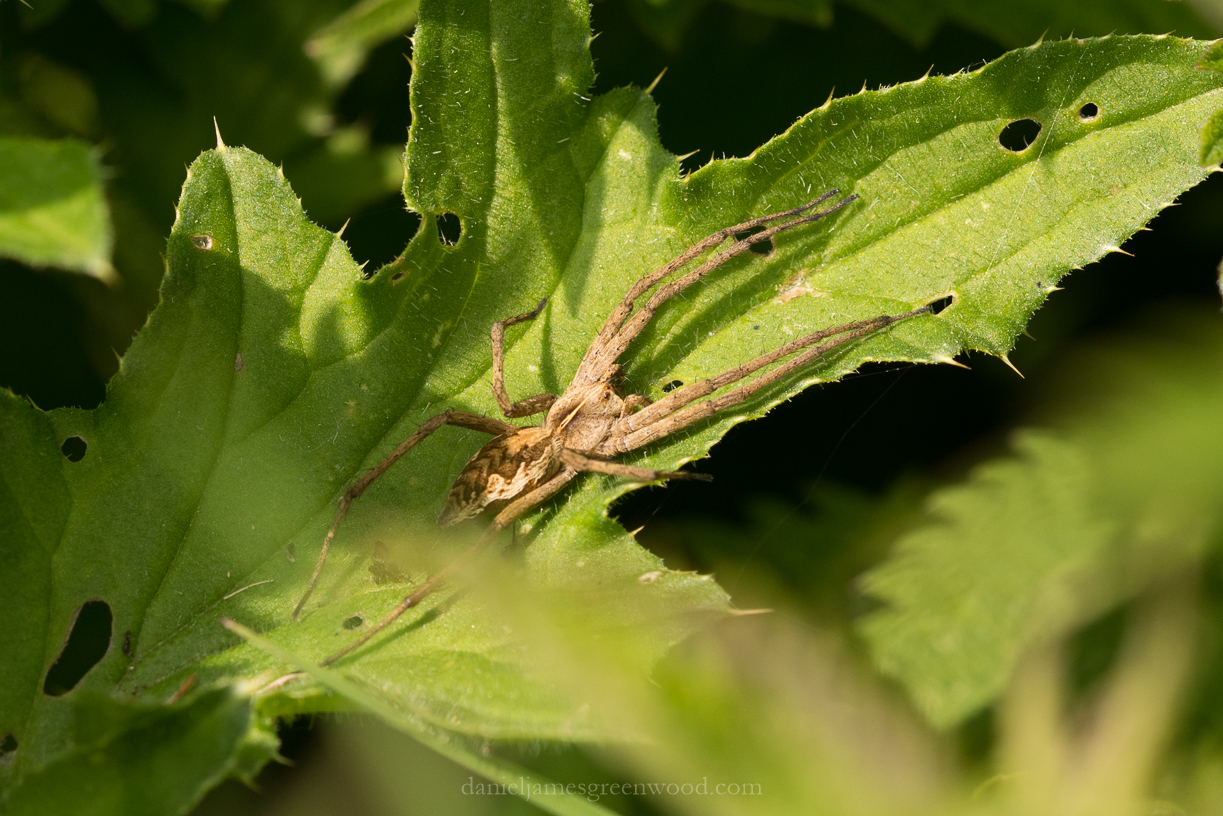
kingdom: Animalia
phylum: Arthropoda
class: Arachnida
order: Araneae
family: Pisauridae
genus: Pisaura
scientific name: Pisaura mirabilis
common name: Tent spider
